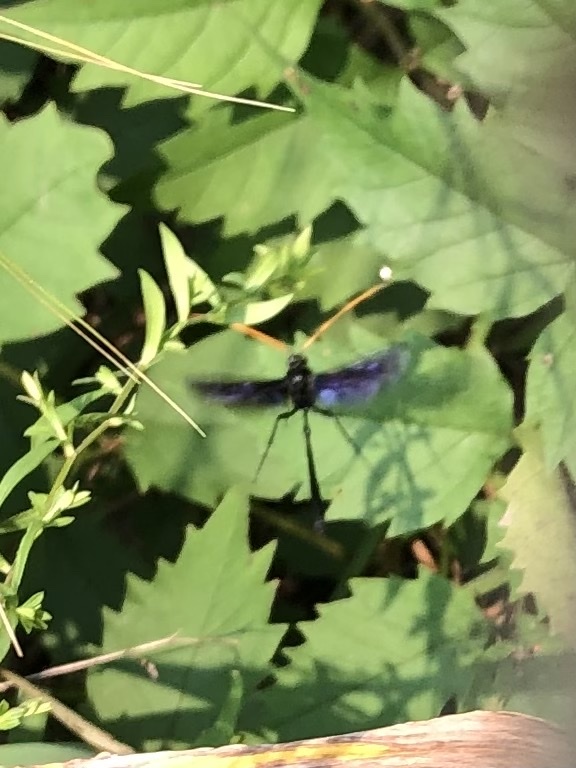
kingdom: Animalia
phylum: Arthropoda
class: Insecta
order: Hymenoptera
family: Ichneumonidae
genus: Thyreodon
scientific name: Thyreodon atricolor
